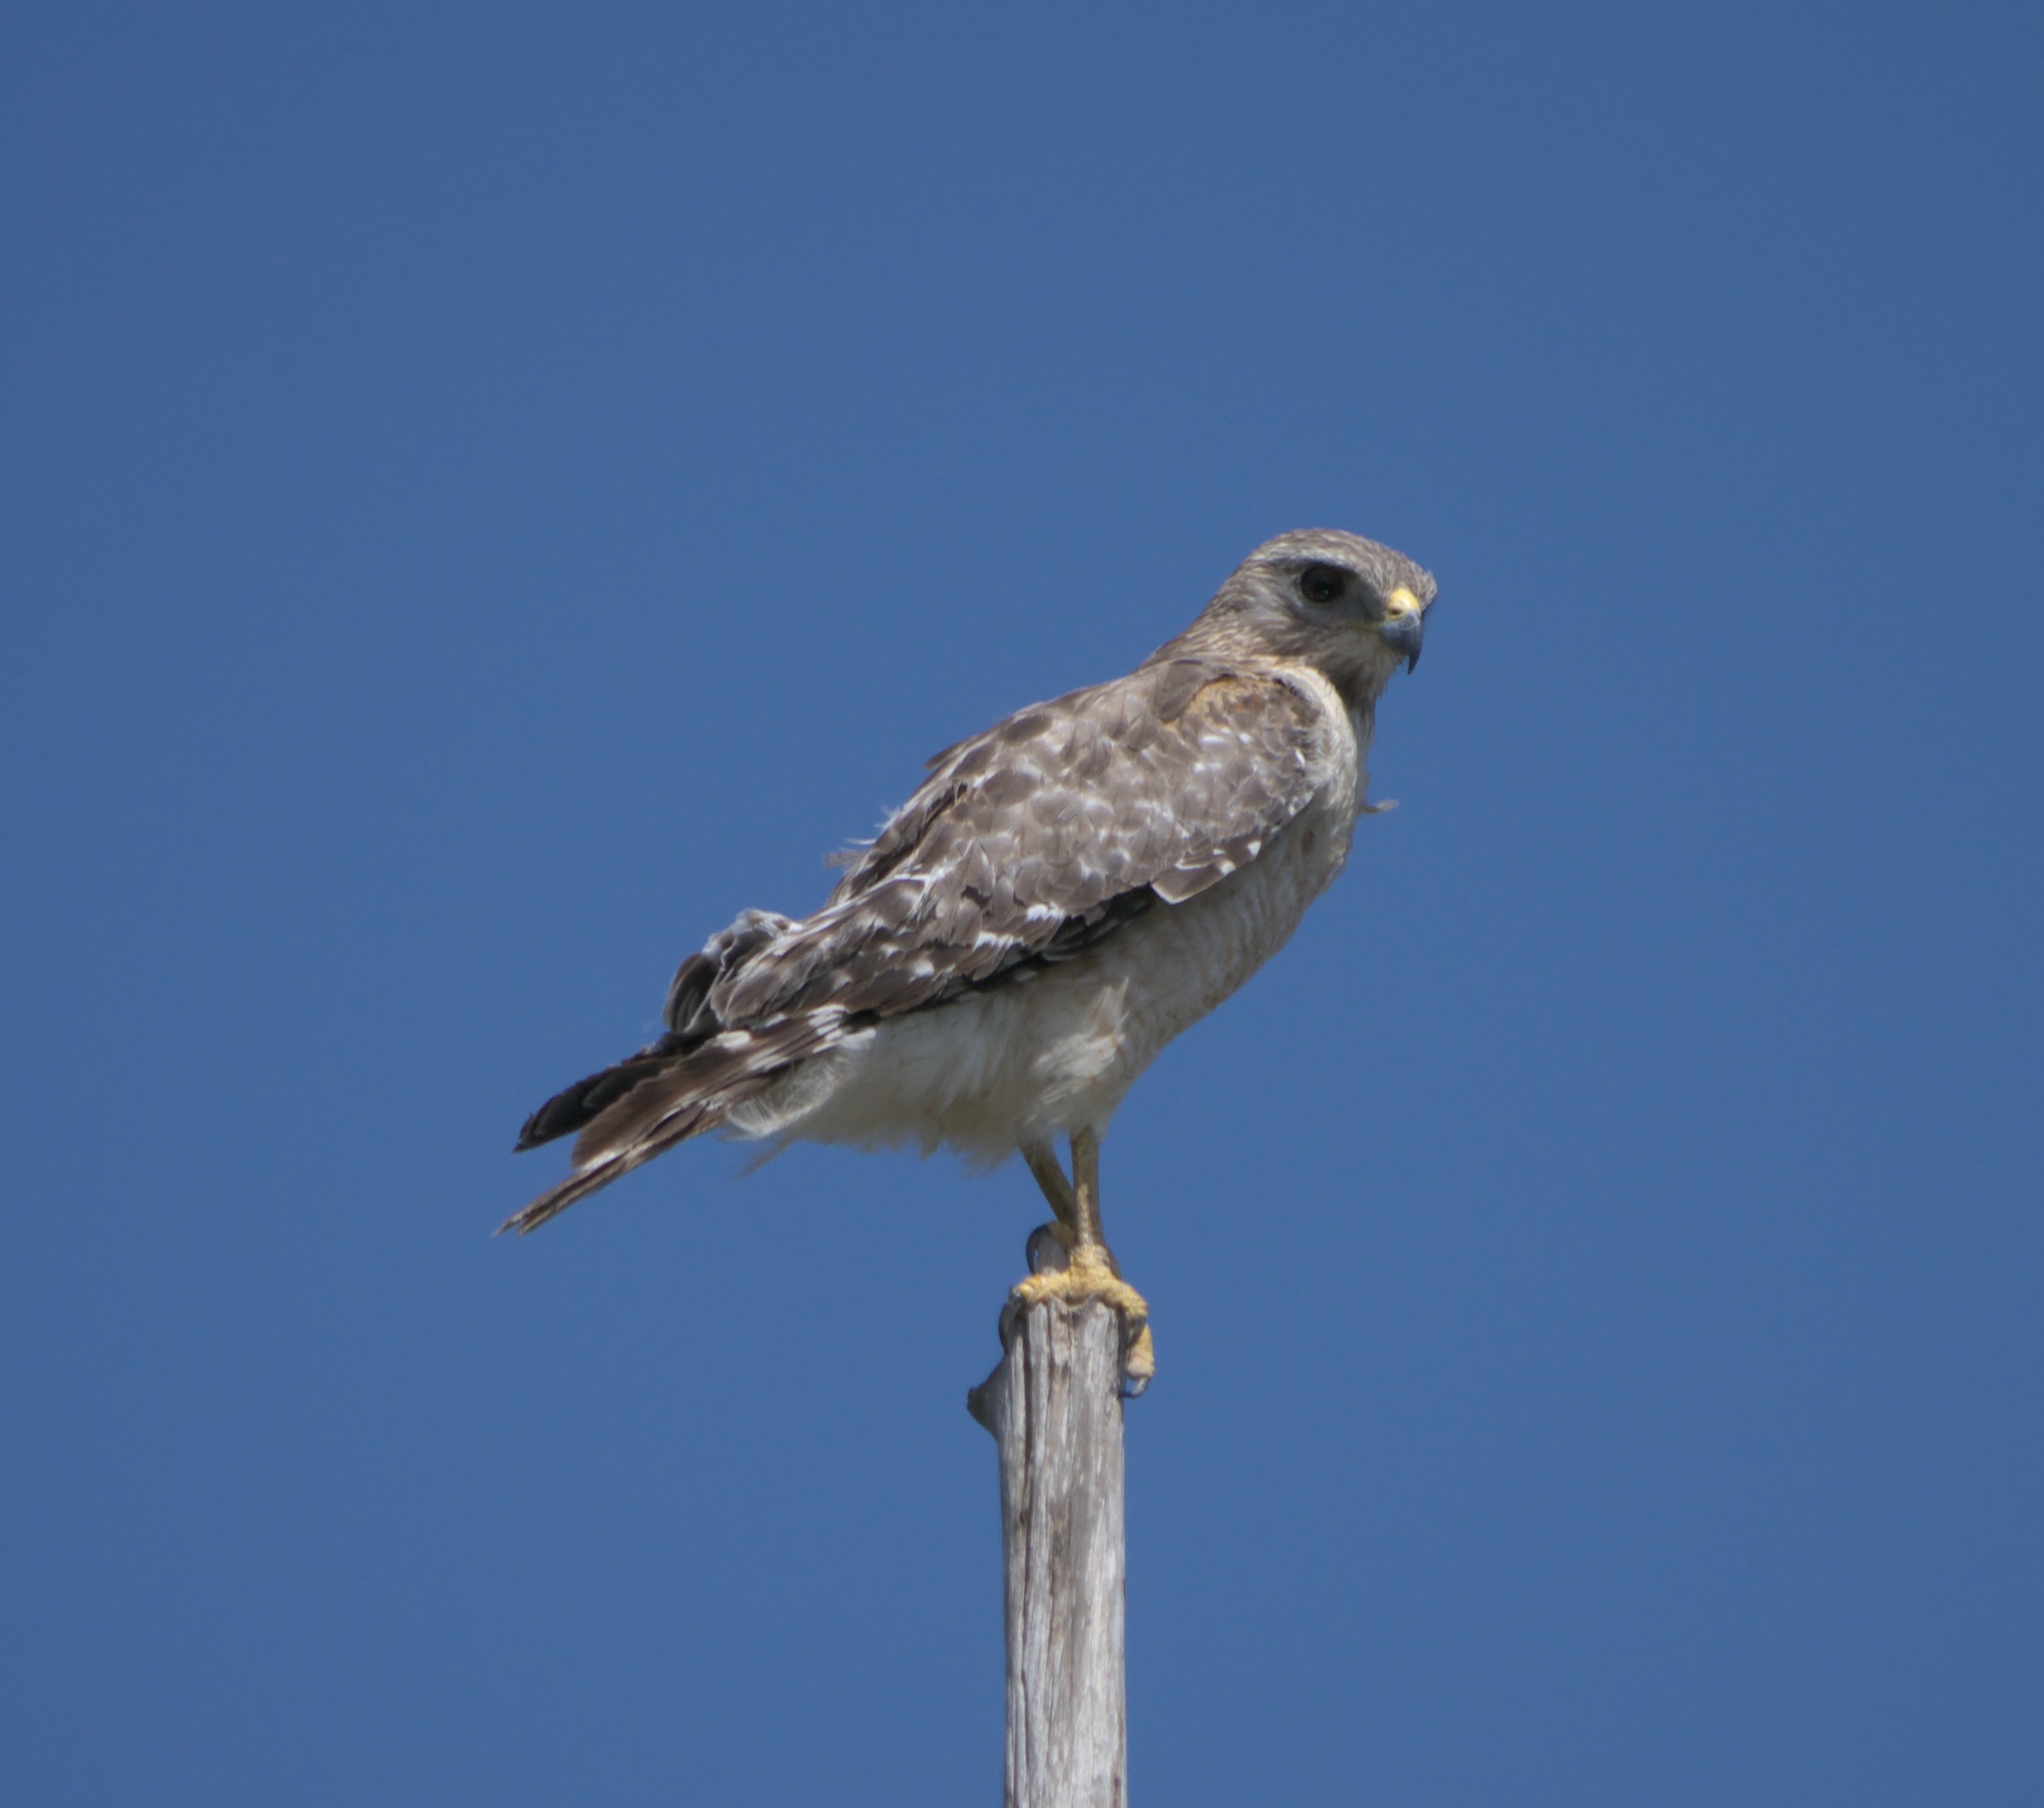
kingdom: Animalia
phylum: Chordata
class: Aves
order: Accipitriformes
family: Accipitridae
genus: Buteo
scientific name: Buteo lineatus
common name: Red-shouldered hawk
